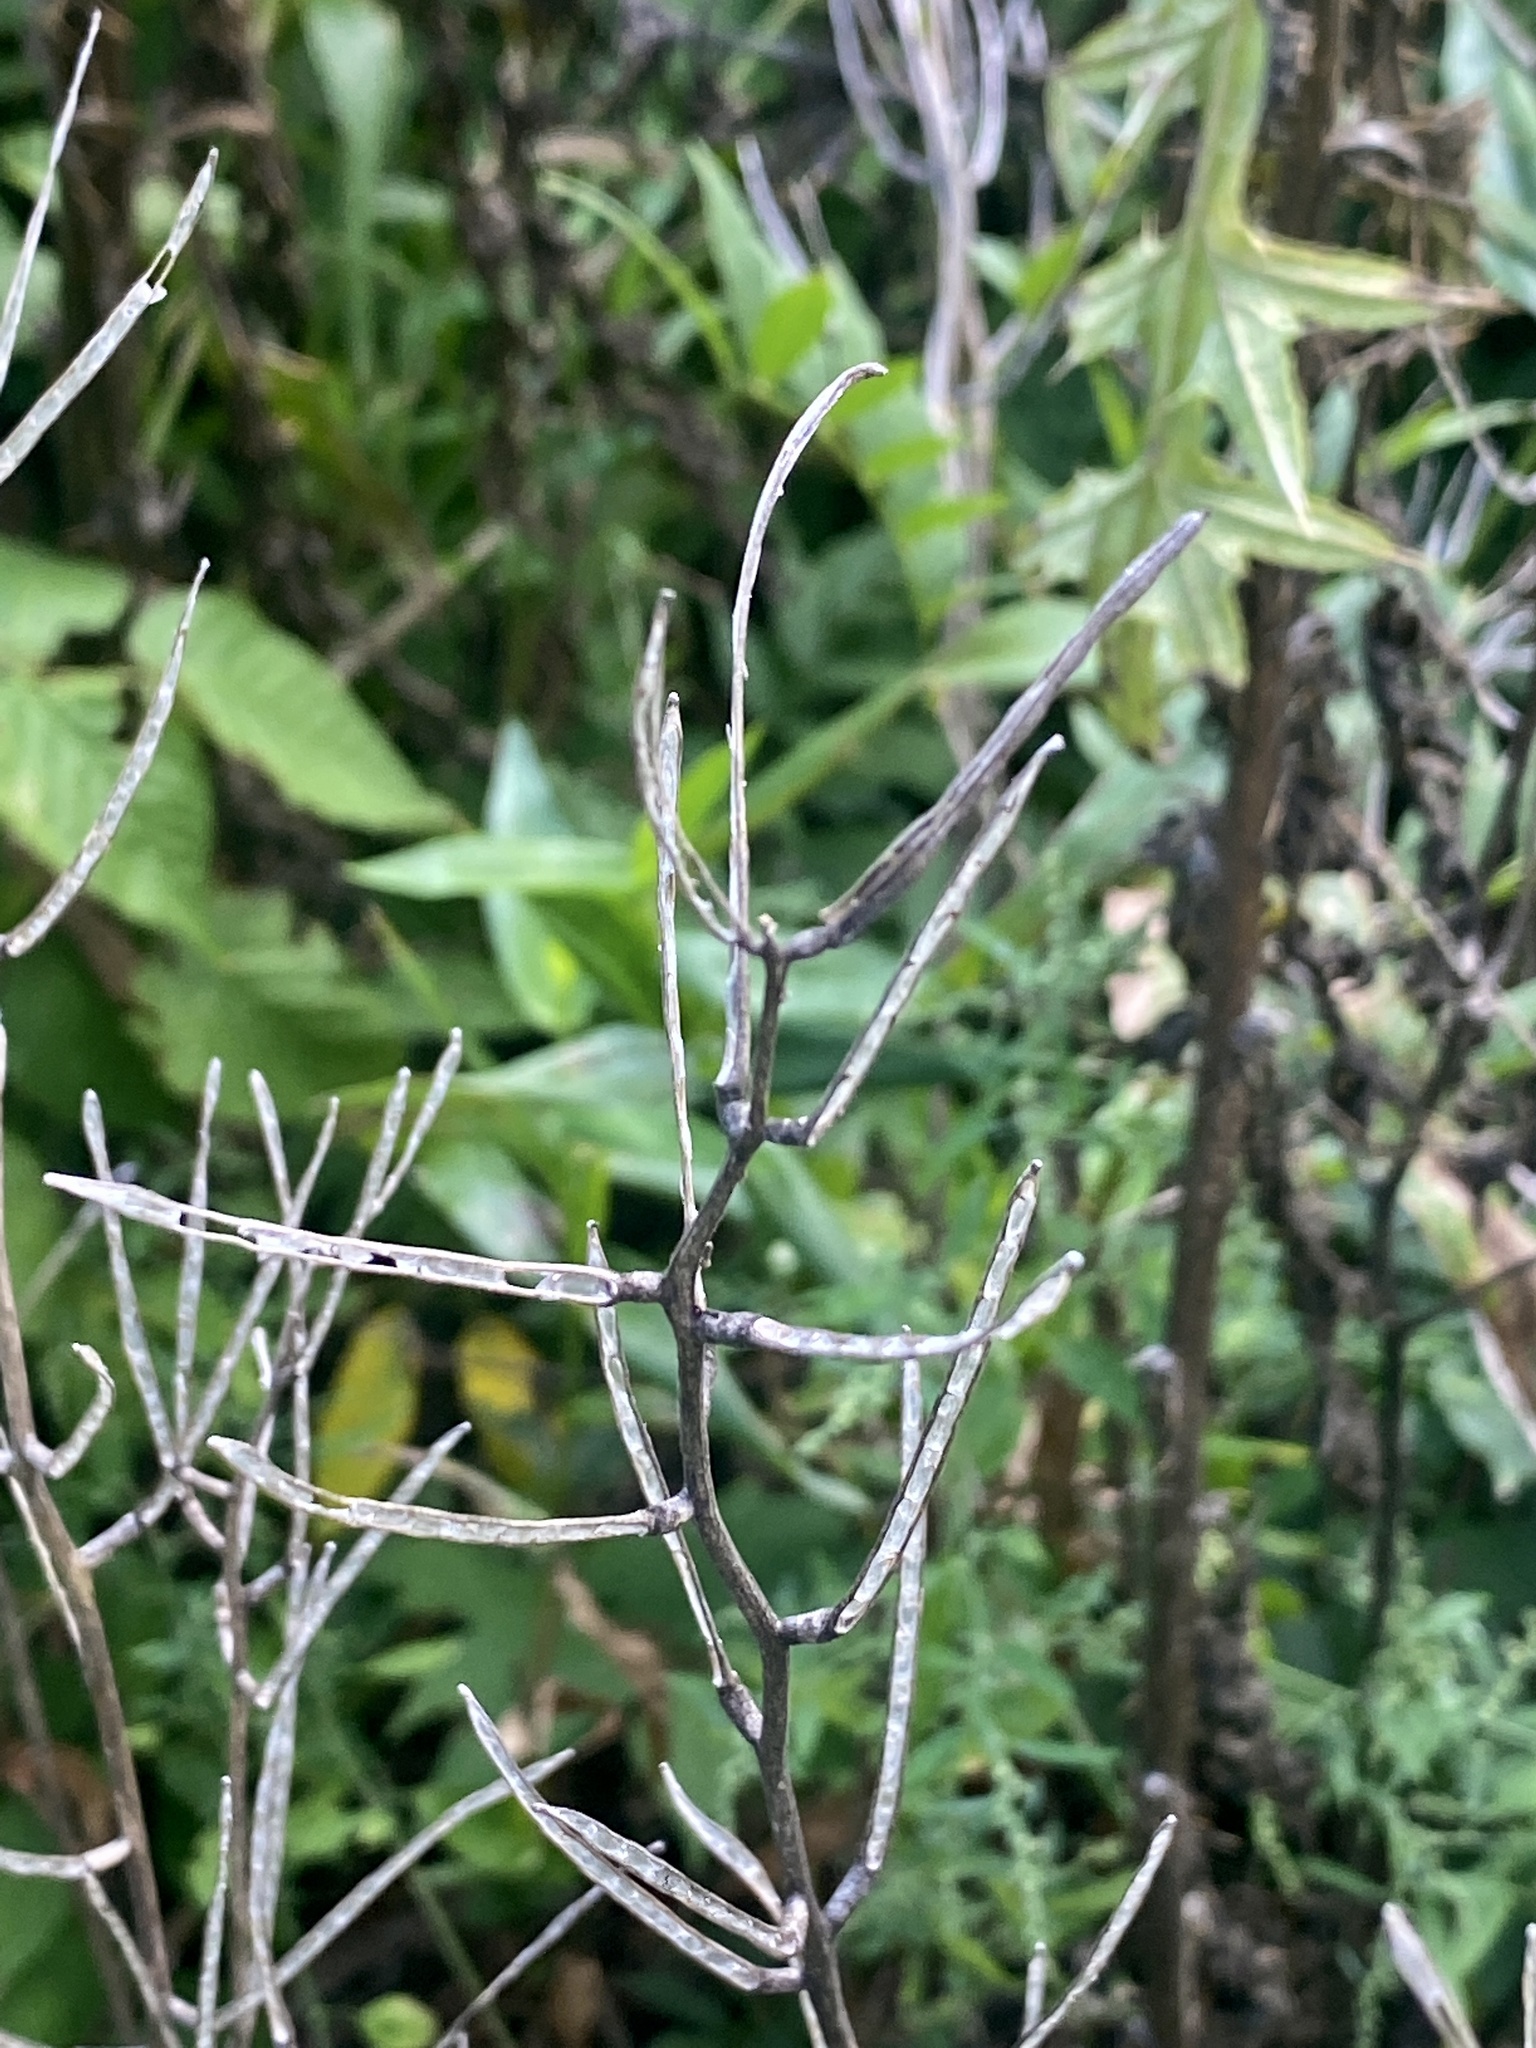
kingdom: Plantae
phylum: Tracheophyta
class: Magnoliopsida
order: Brassicales
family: Brassicaceae
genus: Alliaria
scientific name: Alliaria petiolata
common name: Garlic mustard
